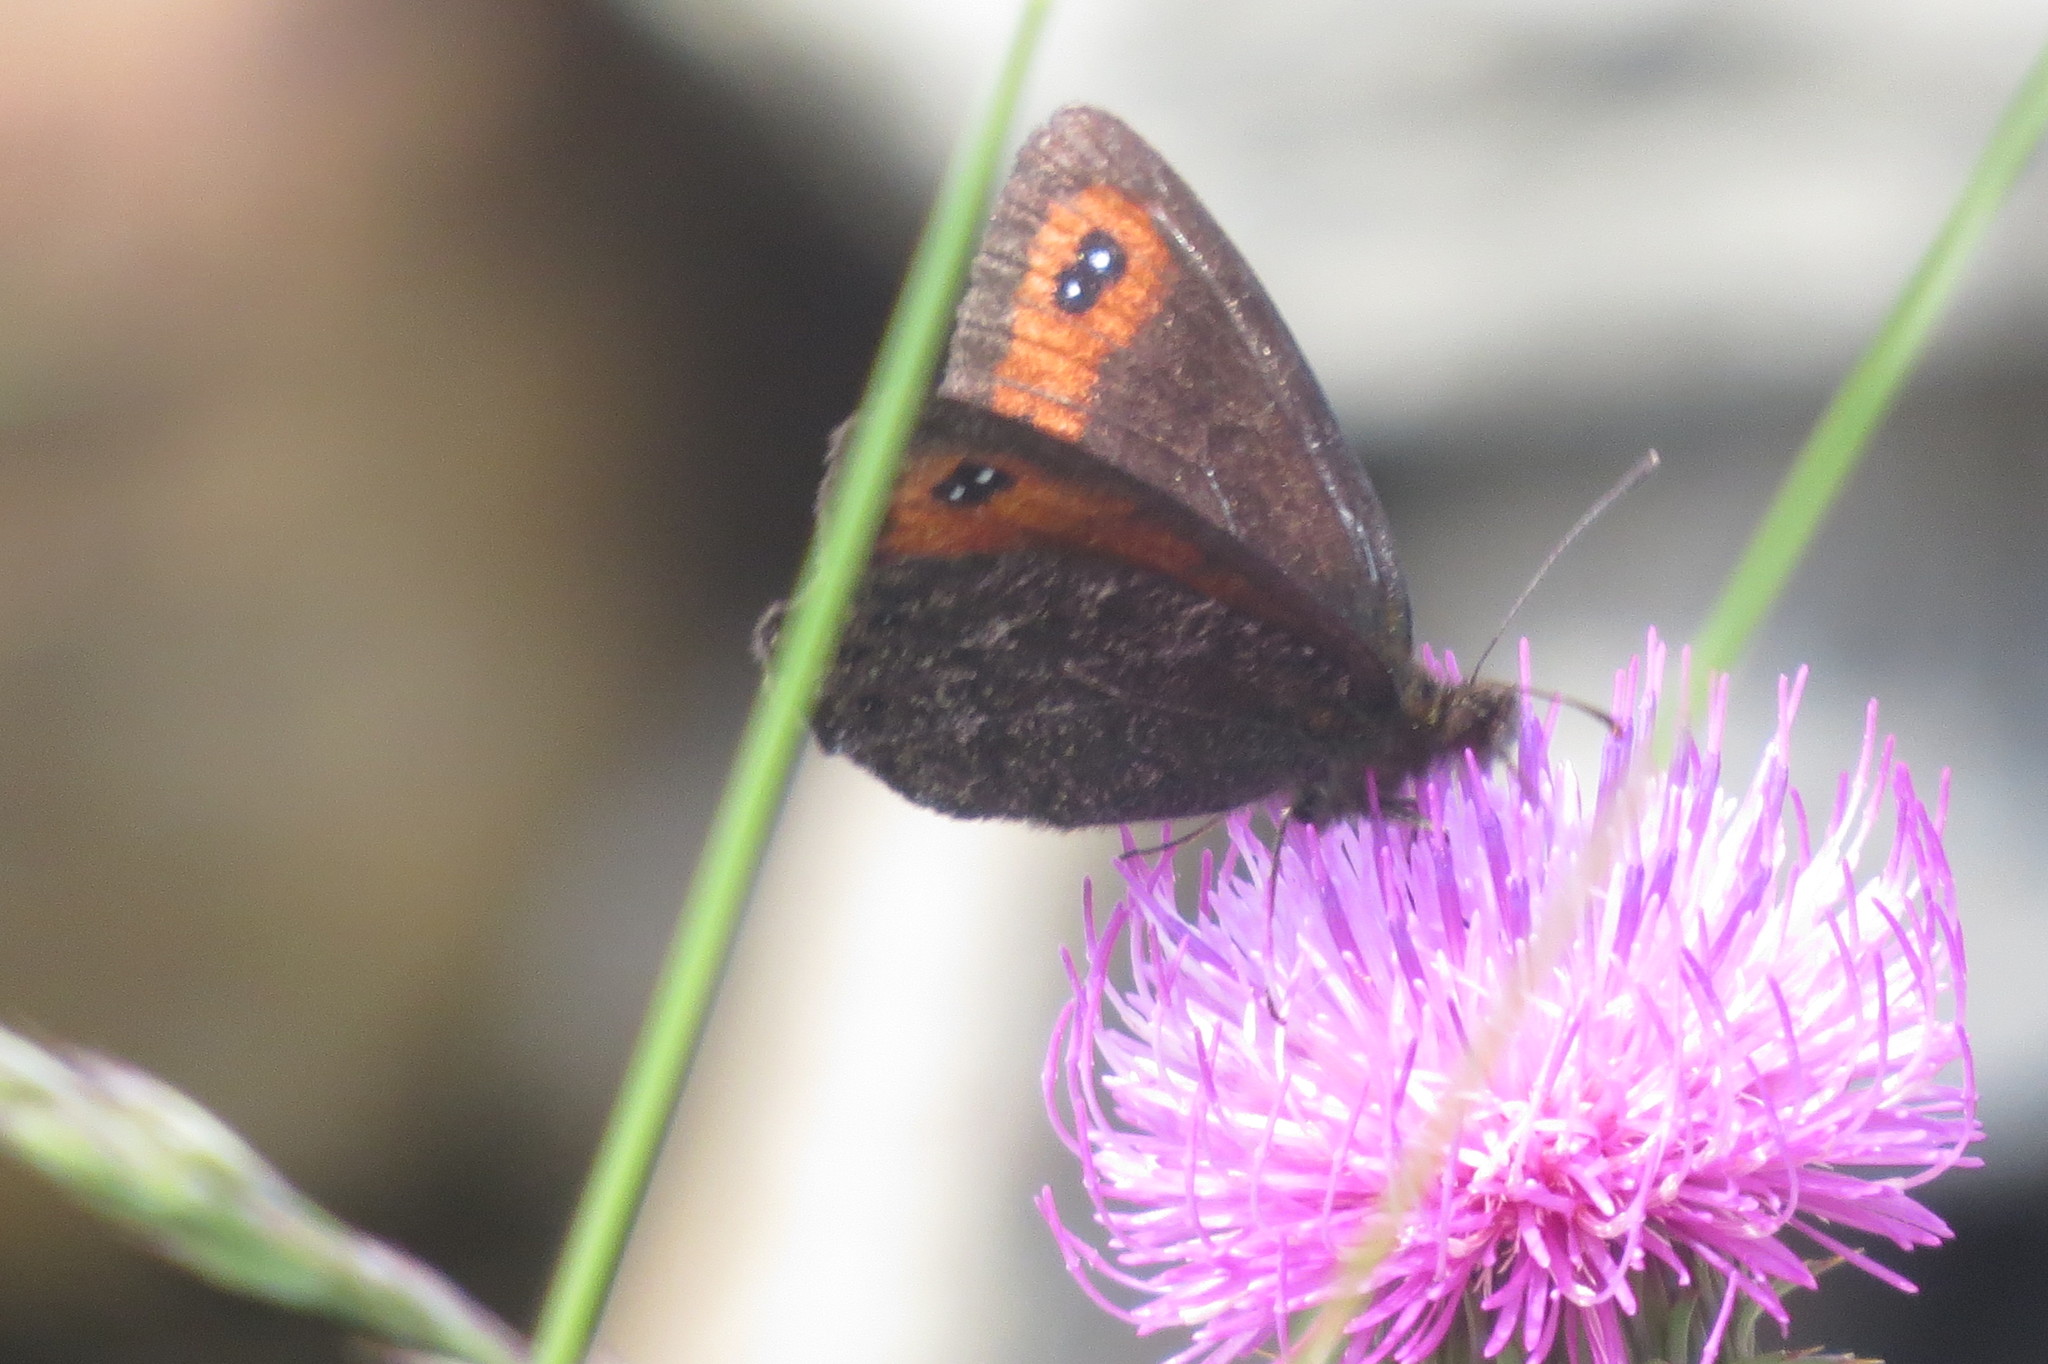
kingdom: Animalia
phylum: Arthropoda
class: Insecta
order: Lepidoptera
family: Nymphalidae
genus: Erebia
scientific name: Erebia montanus
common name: Marbled ringlet
